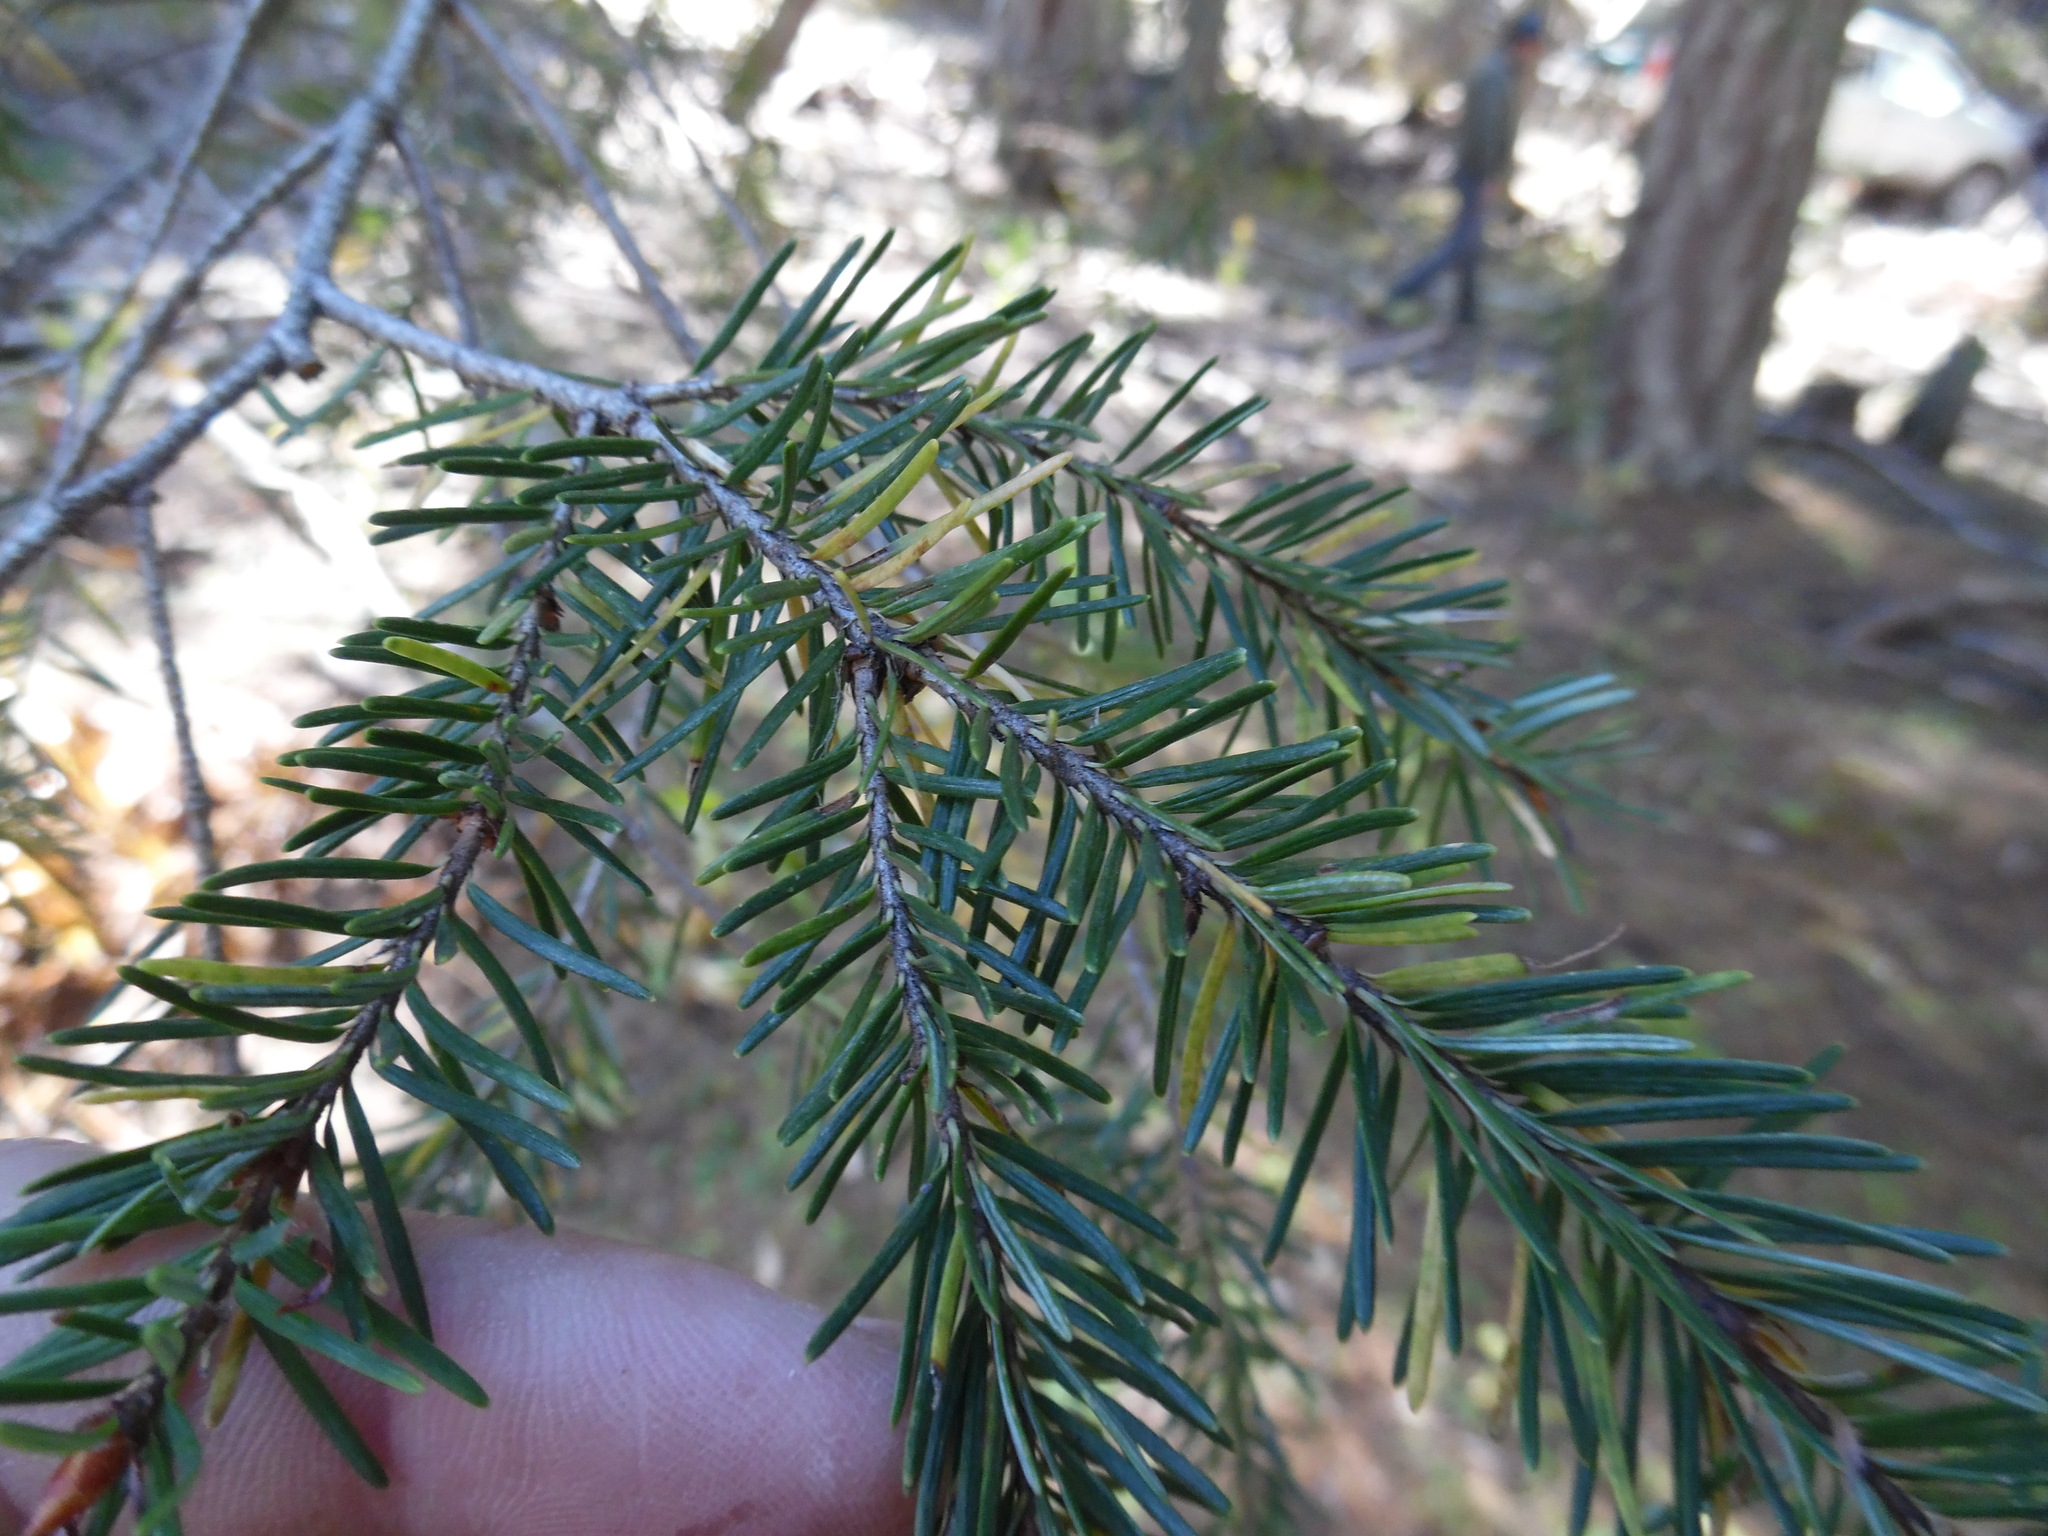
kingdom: Plantae
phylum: Tracheophyta
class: Pinopsida
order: Pinales
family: Pinaceae
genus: Pseudotsuga
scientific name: Pseudotsuga menziesii
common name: Douglas fir
